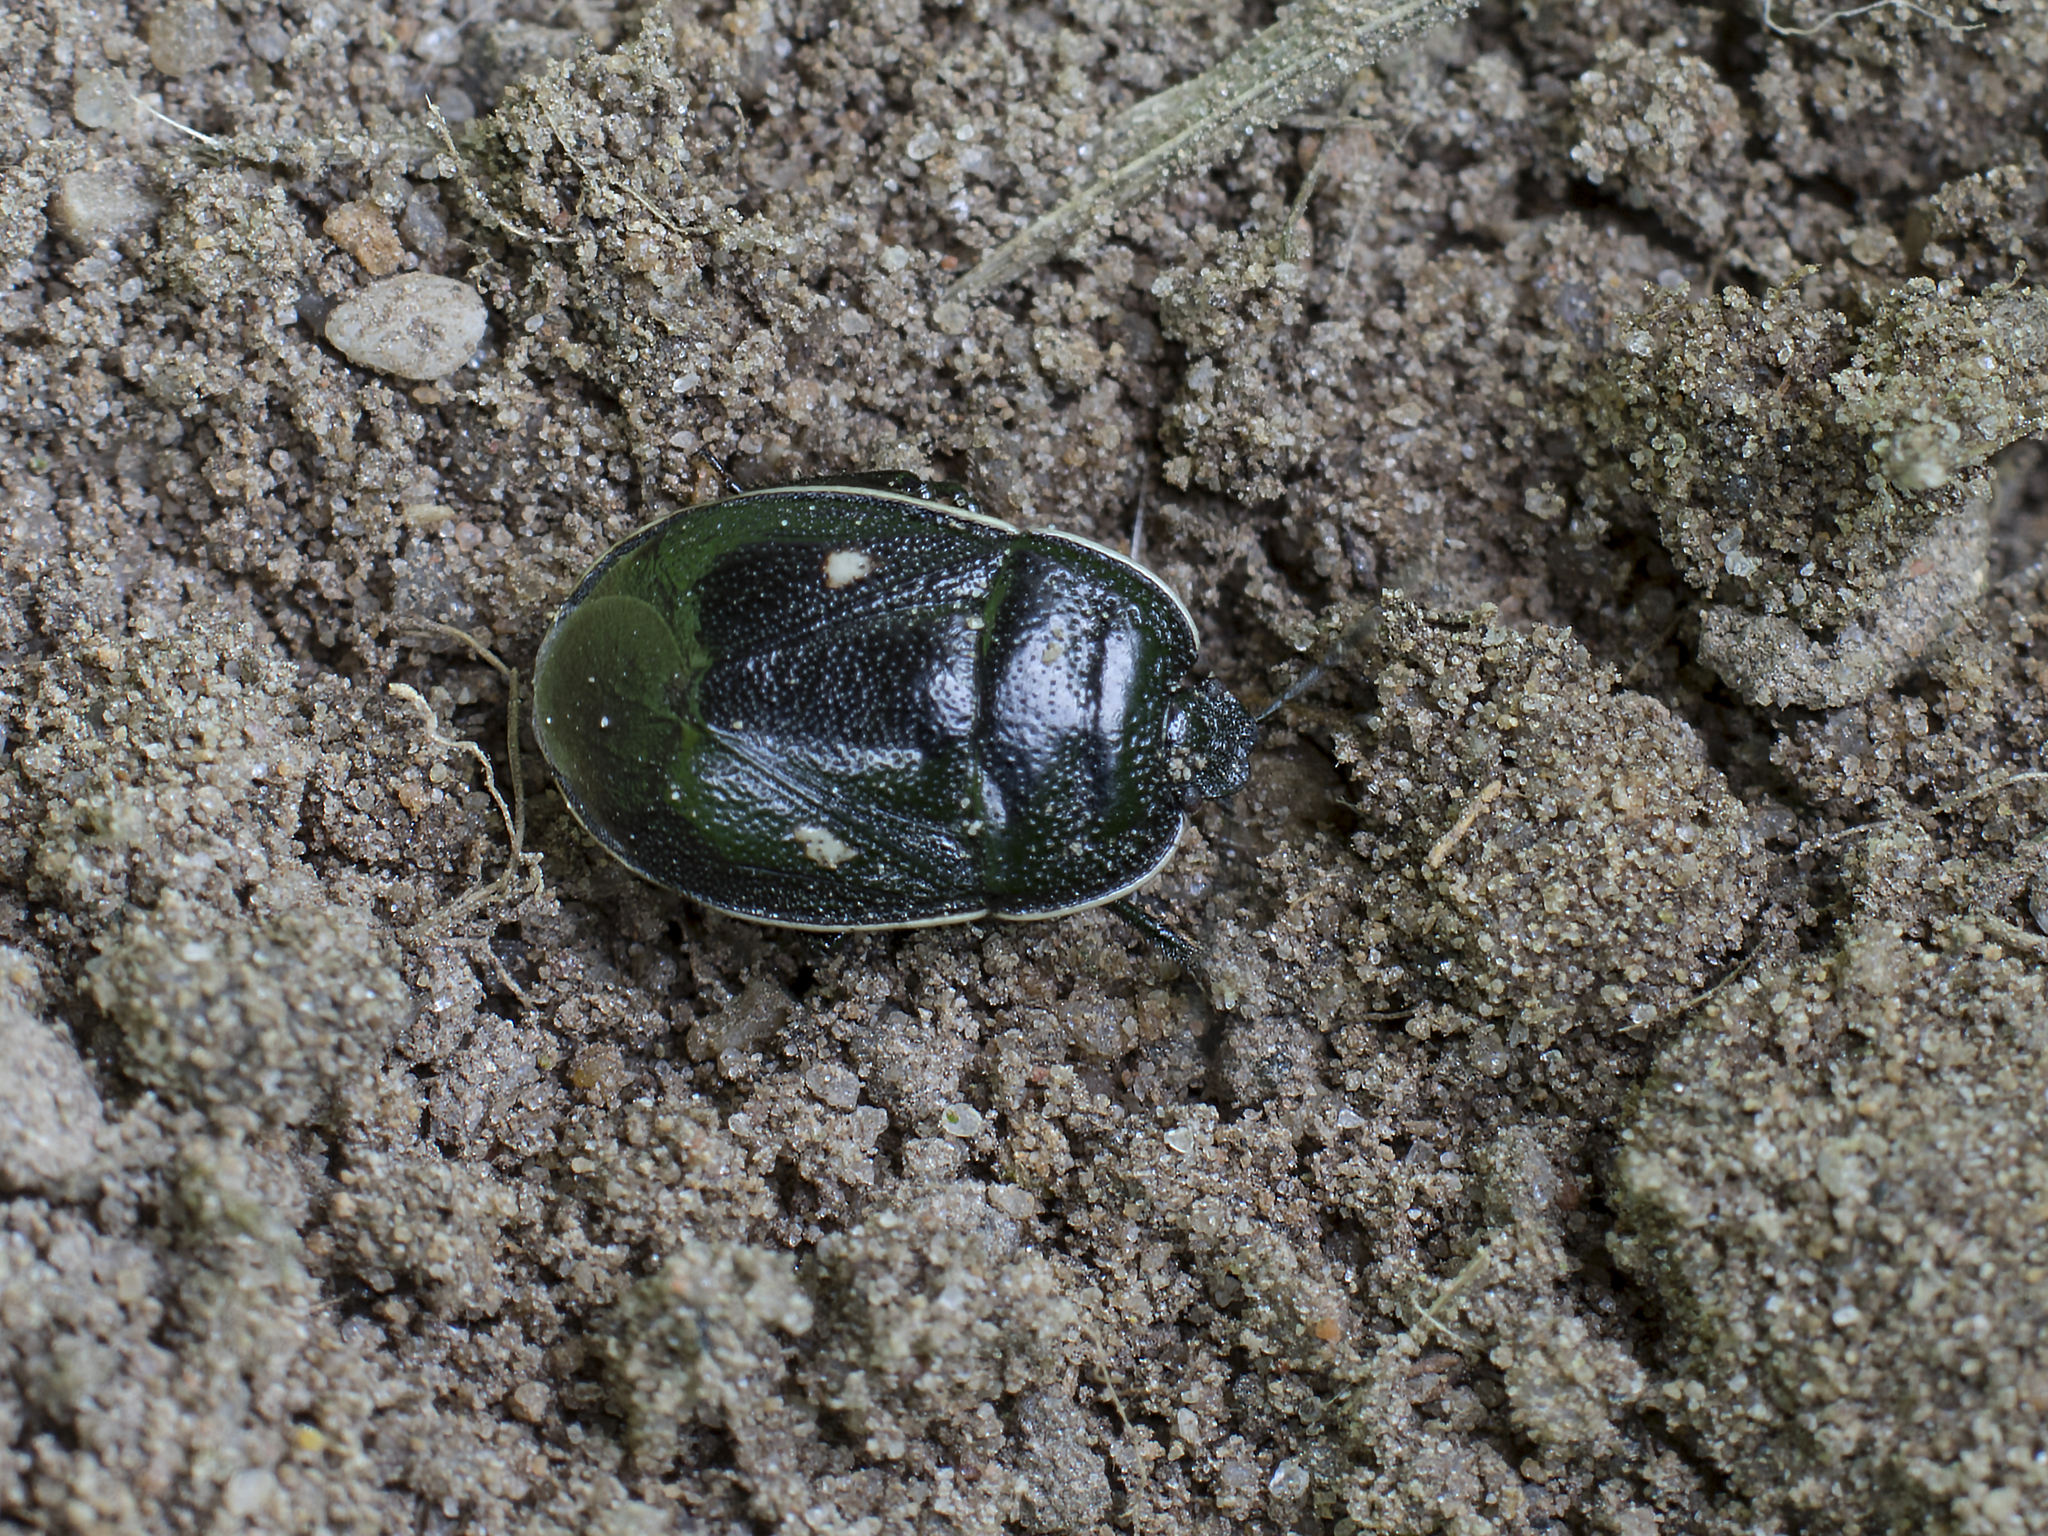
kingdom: Animalia
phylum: Arthropoda
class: Insecta
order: Hemiptera
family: Cydnidae
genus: Adomerus
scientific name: Adomerus biguttatus
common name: Cow wheat shieldbug
